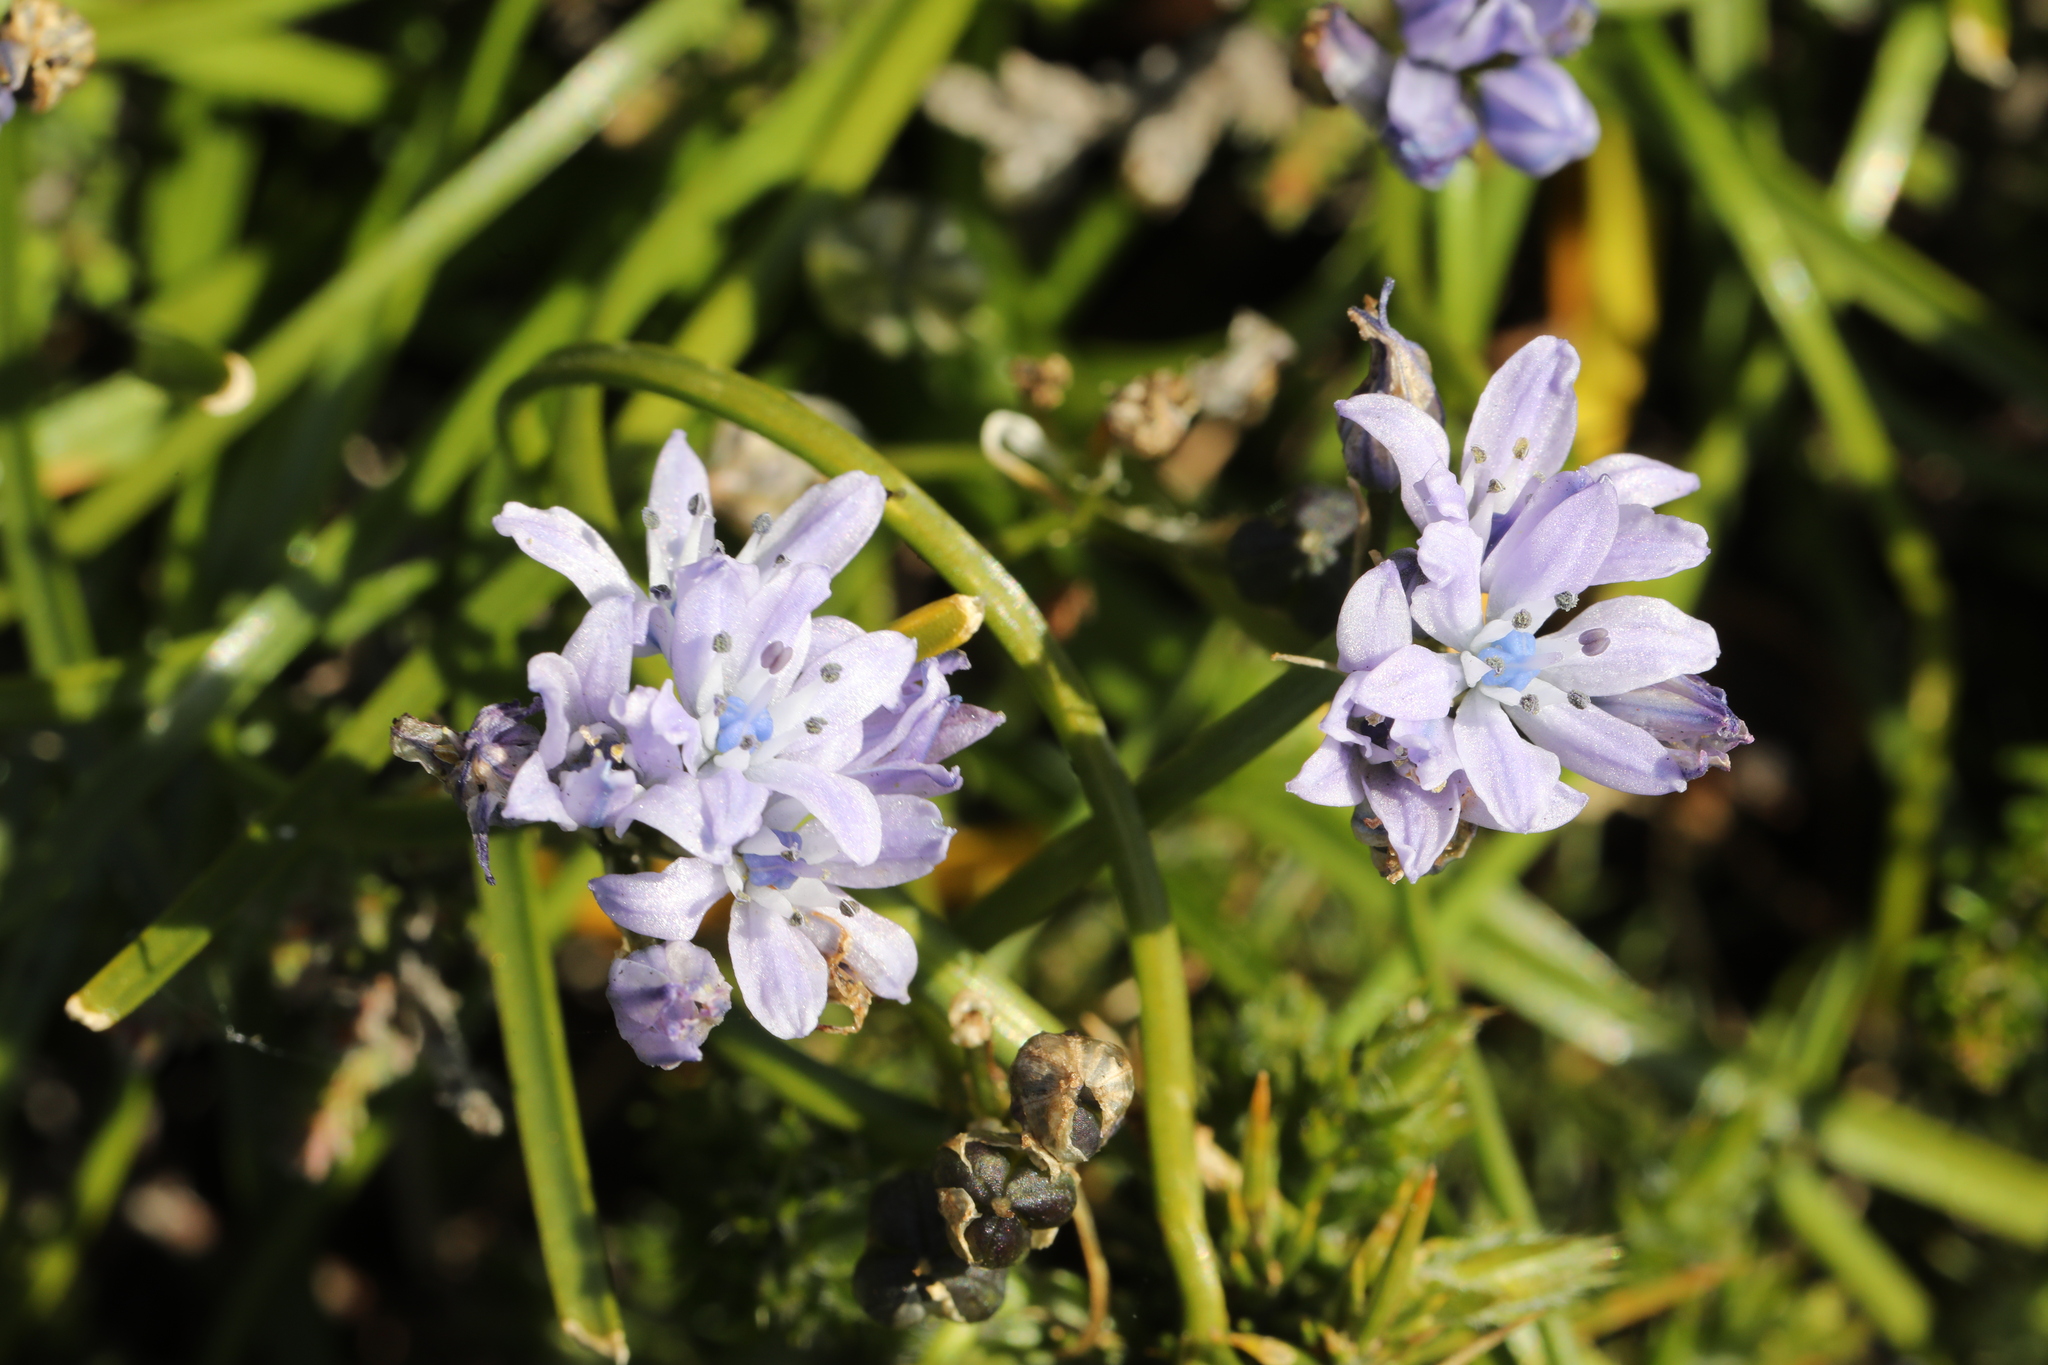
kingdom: Plantae
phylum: Tracheophyta
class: Liliopsida
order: Asparagales
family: Asparagaceae
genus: Scilla
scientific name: Scilla verna
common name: Spring squill
